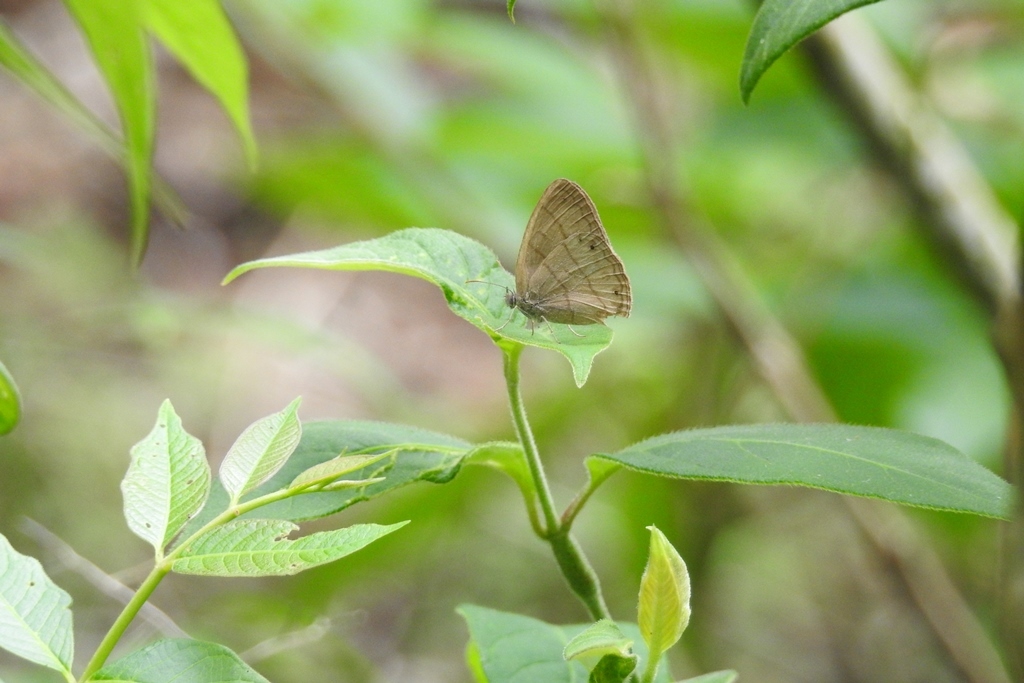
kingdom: Animalia
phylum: Arthropoda
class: Insecta
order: Lepidoptera
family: Nymphalidae
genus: Yphthimoides
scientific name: Yphthimoides renata
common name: Renata’s satyr
